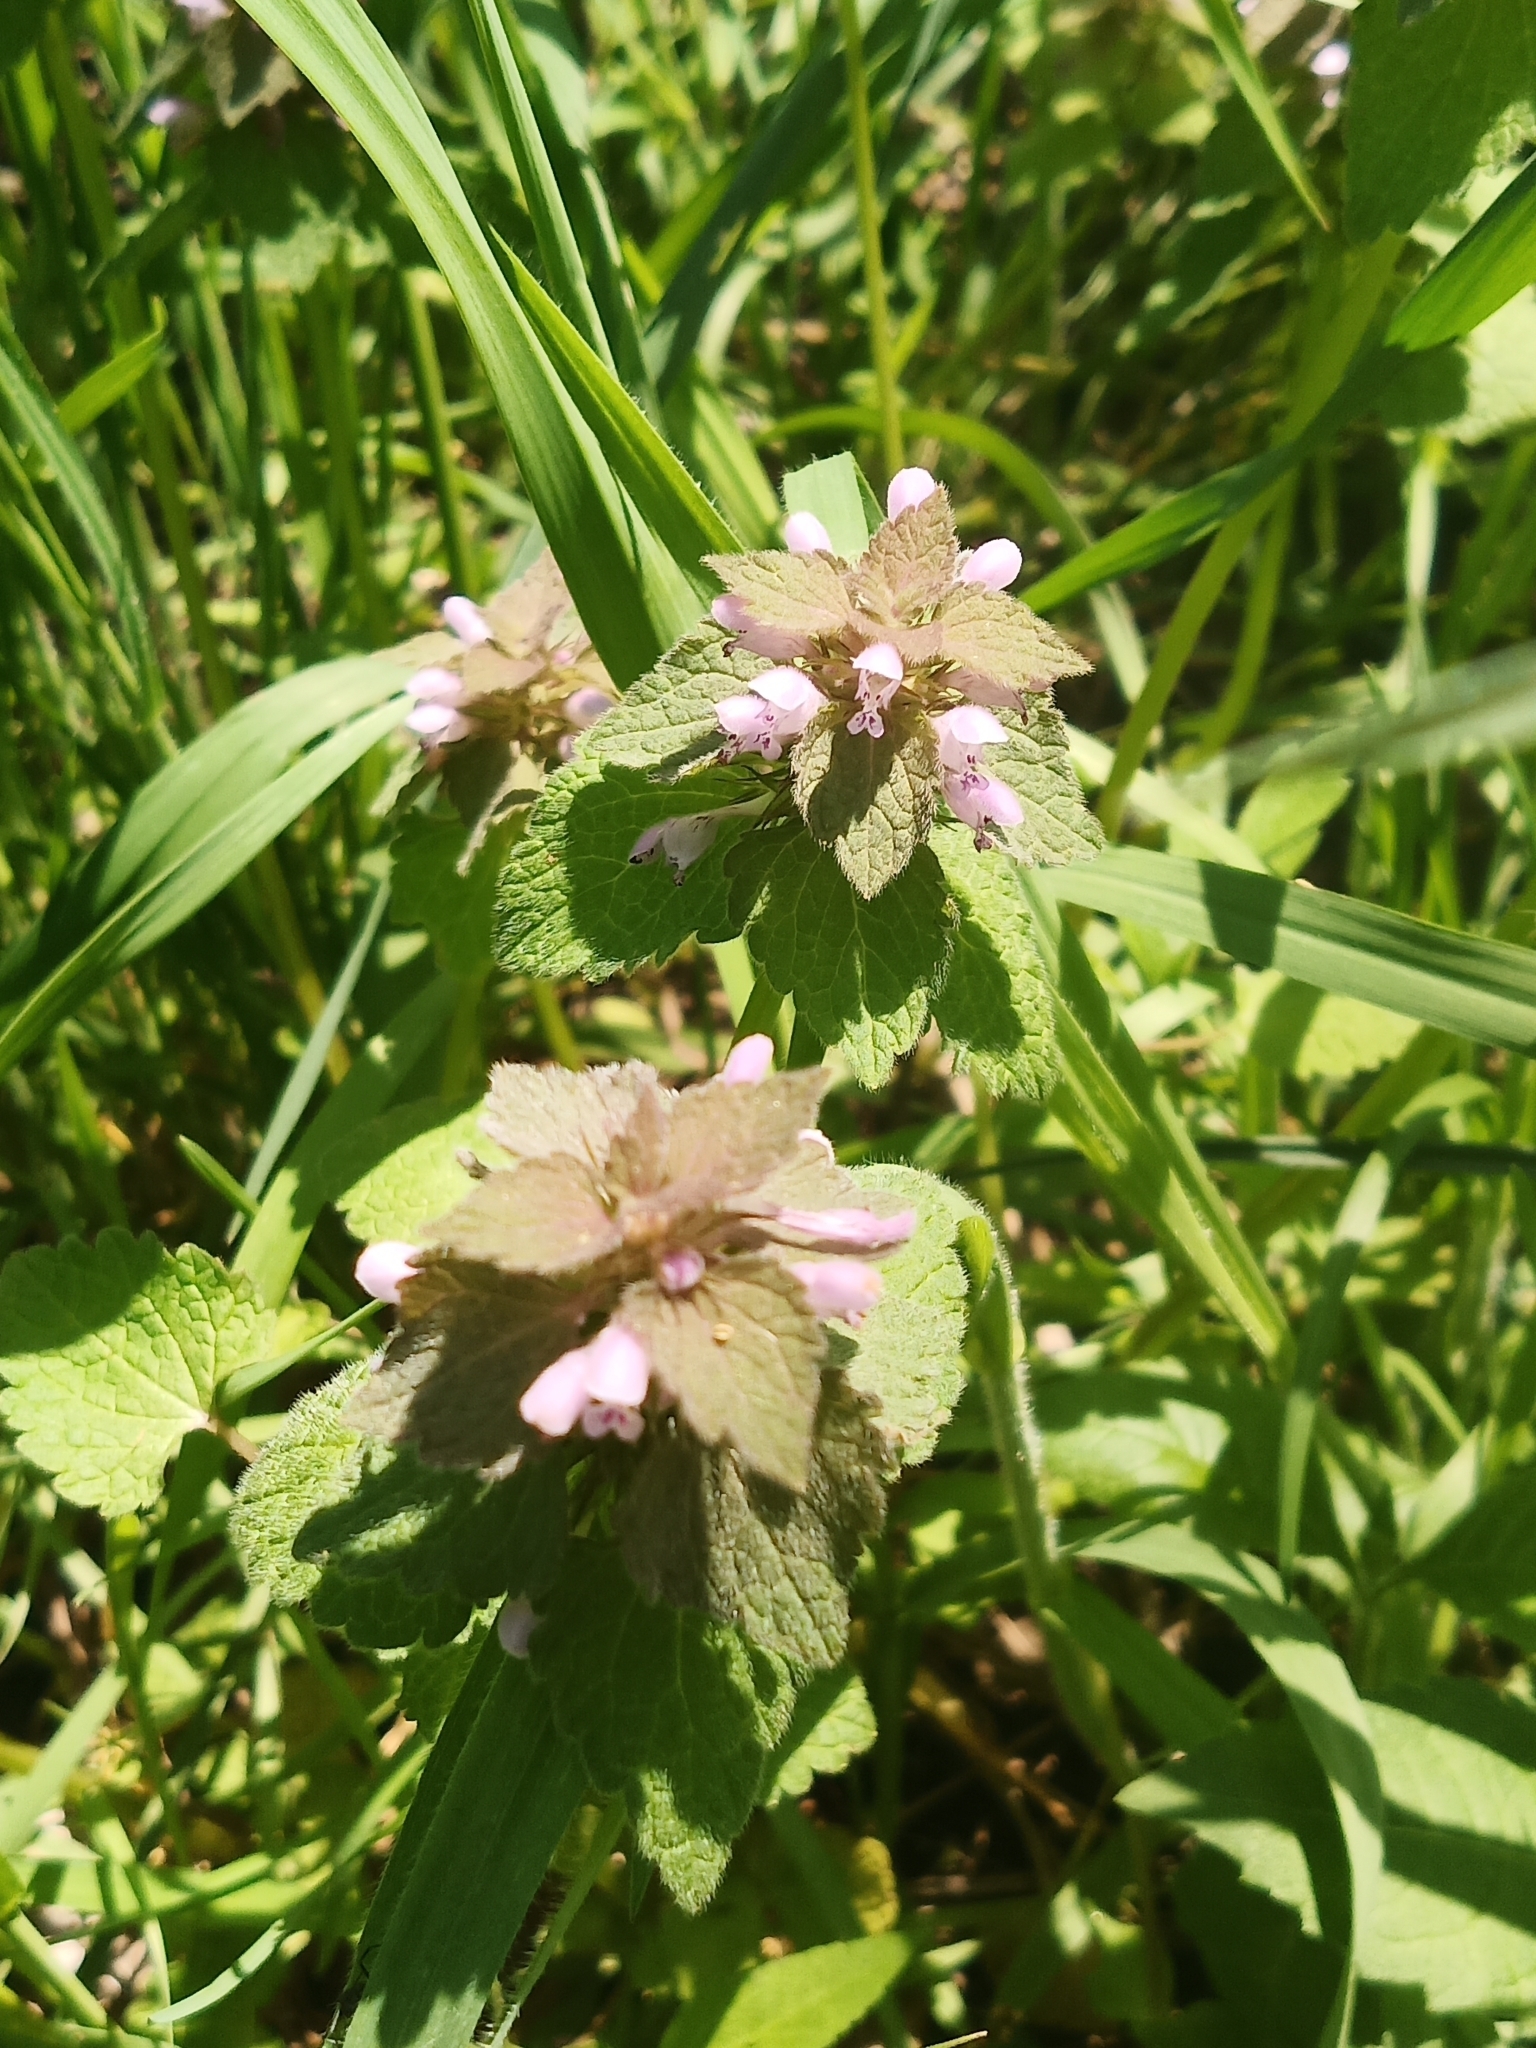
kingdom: Plantae
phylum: Tracheophyta
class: Magnoliopsida
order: Lamiales
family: Lamiaceae
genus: Lamium
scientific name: Lamium purpureum
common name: Red dead-nettle
